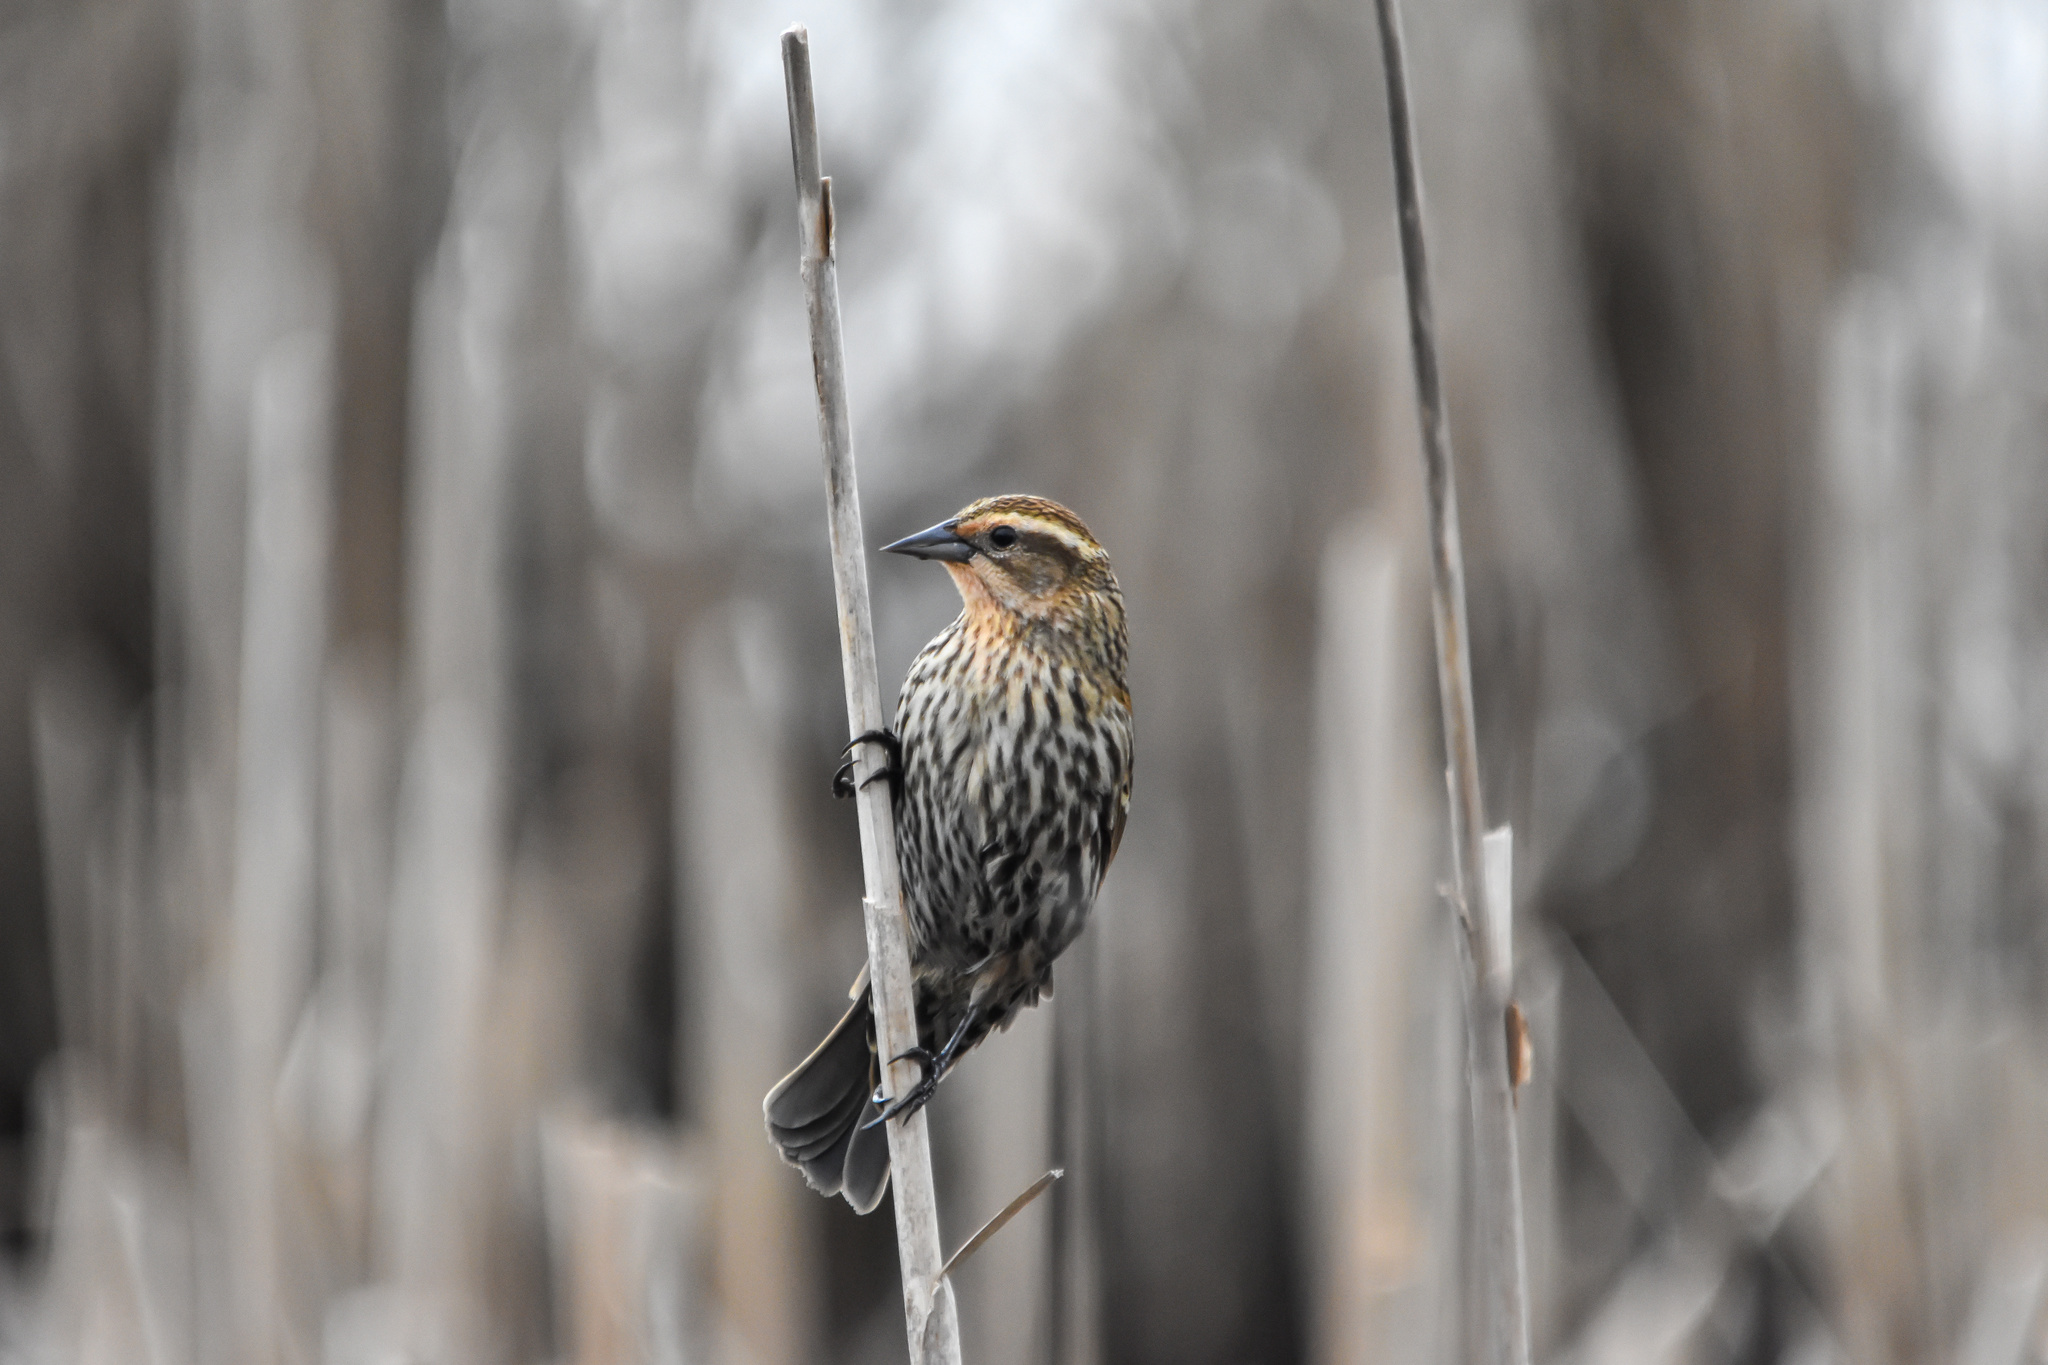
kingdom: Animalia
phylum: Chordata
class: Aves
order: Passeriformes
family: Icteridae
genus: Agelaius
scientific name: Agelaius phoeniceus
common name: Red-winged blackbird
